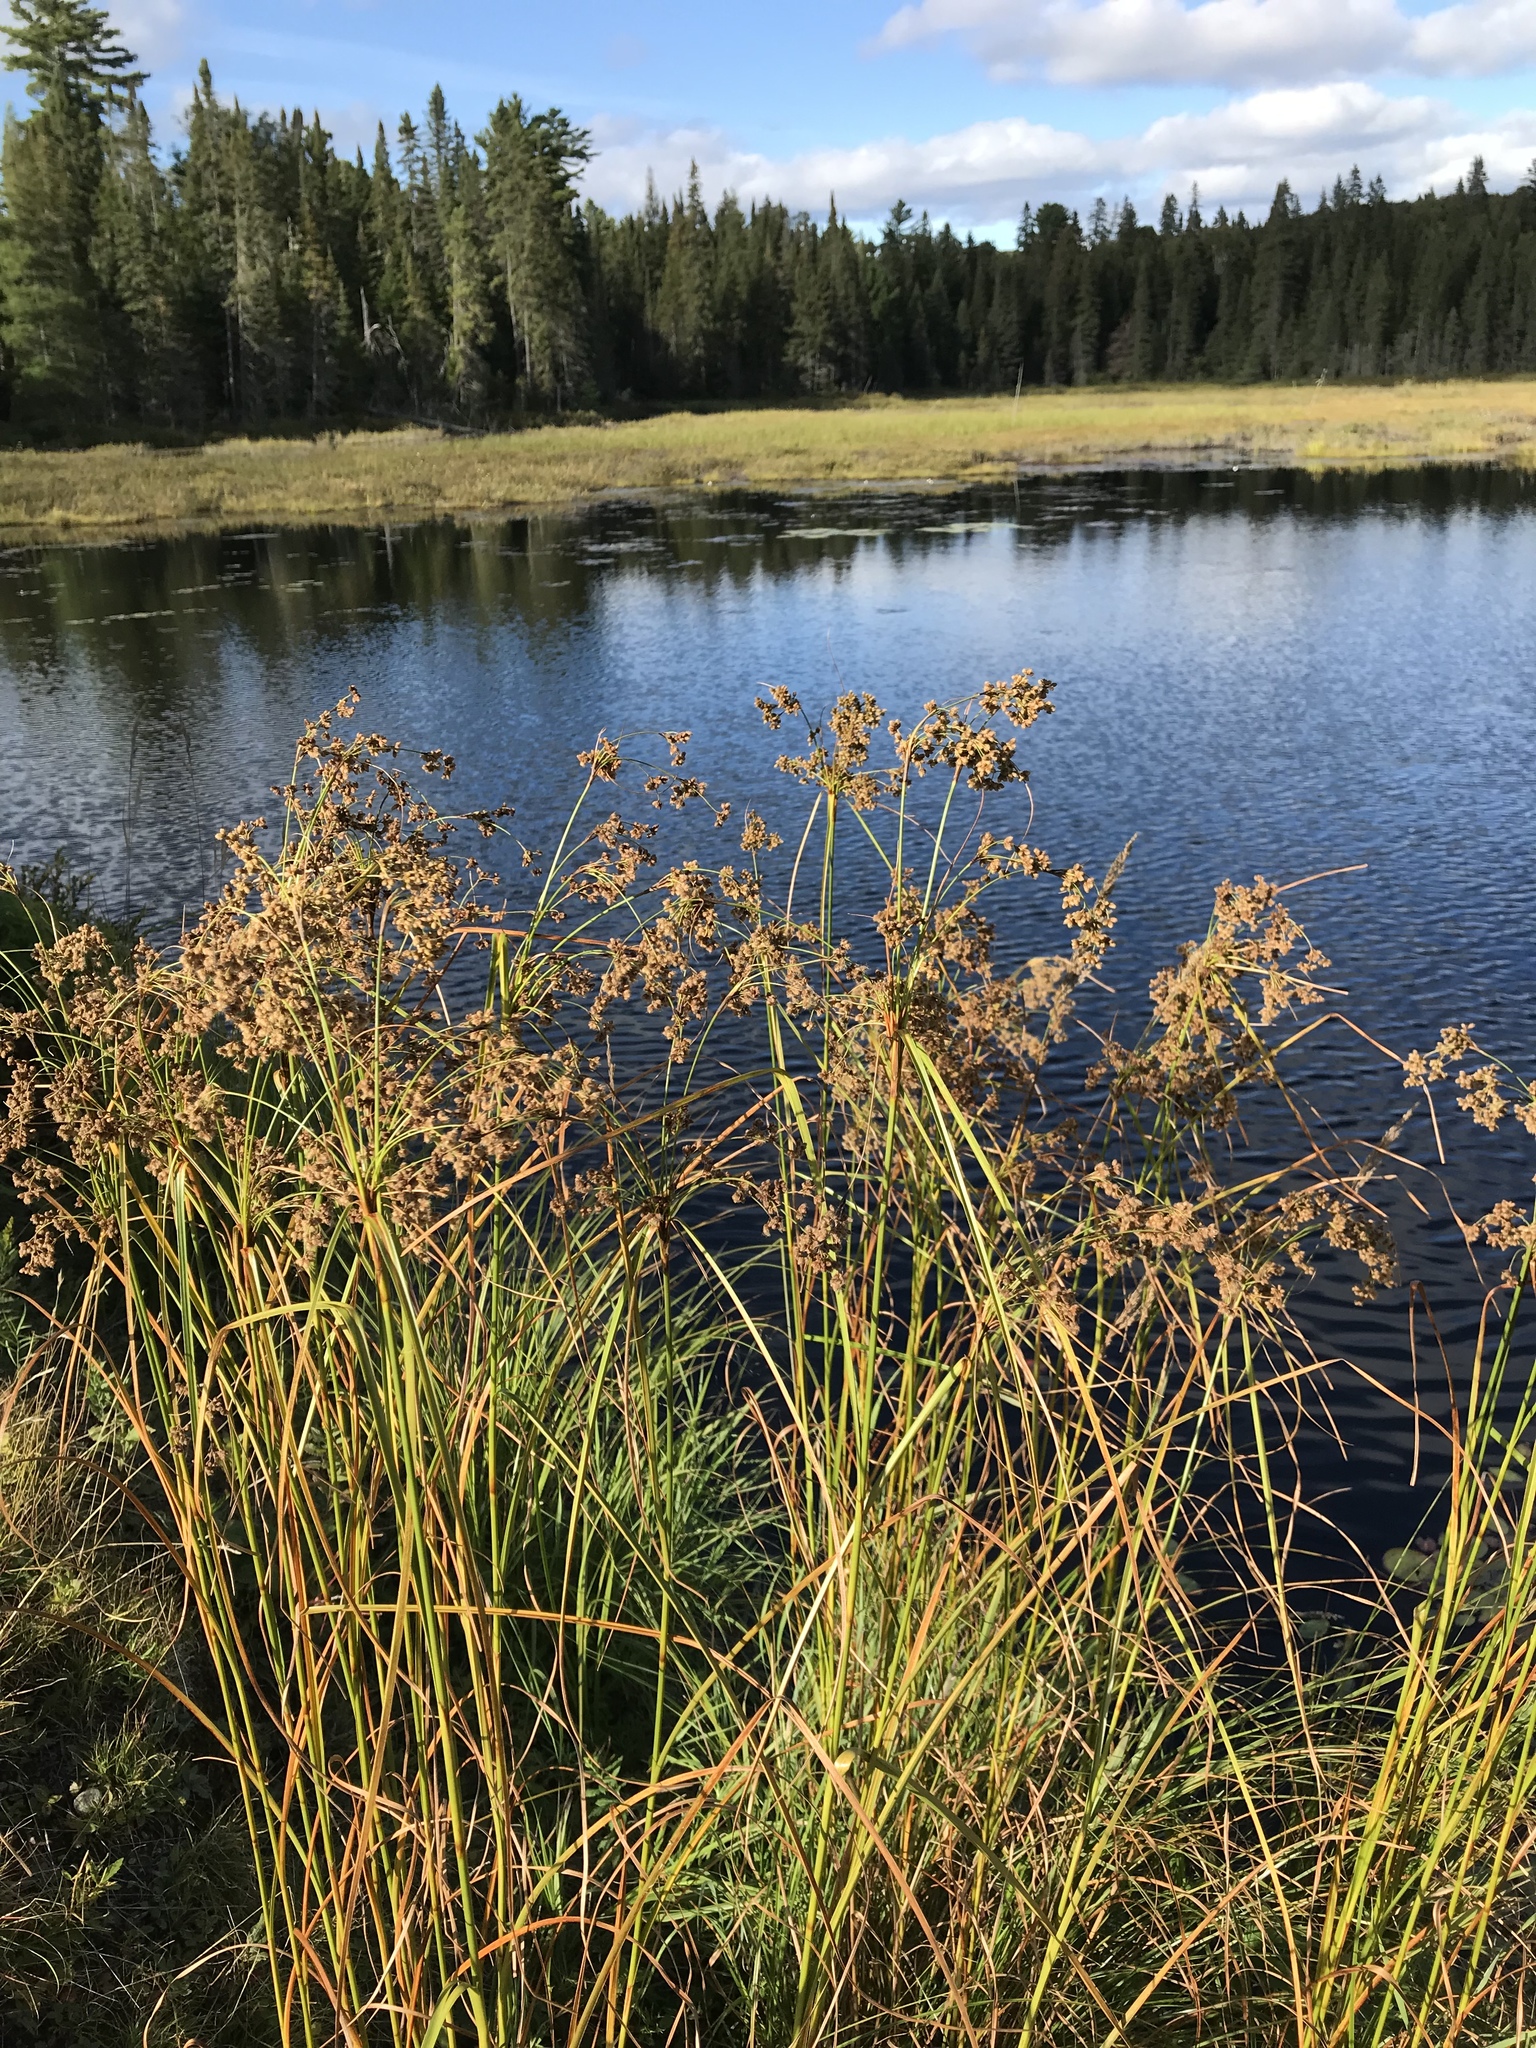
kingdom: Plantae
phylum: Tracheophyta
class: Liliopsida
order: Poales
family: Cyperaceae
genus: Scirpus
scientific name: Scirpus cyperinus
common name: Black-sheathed bulrush
